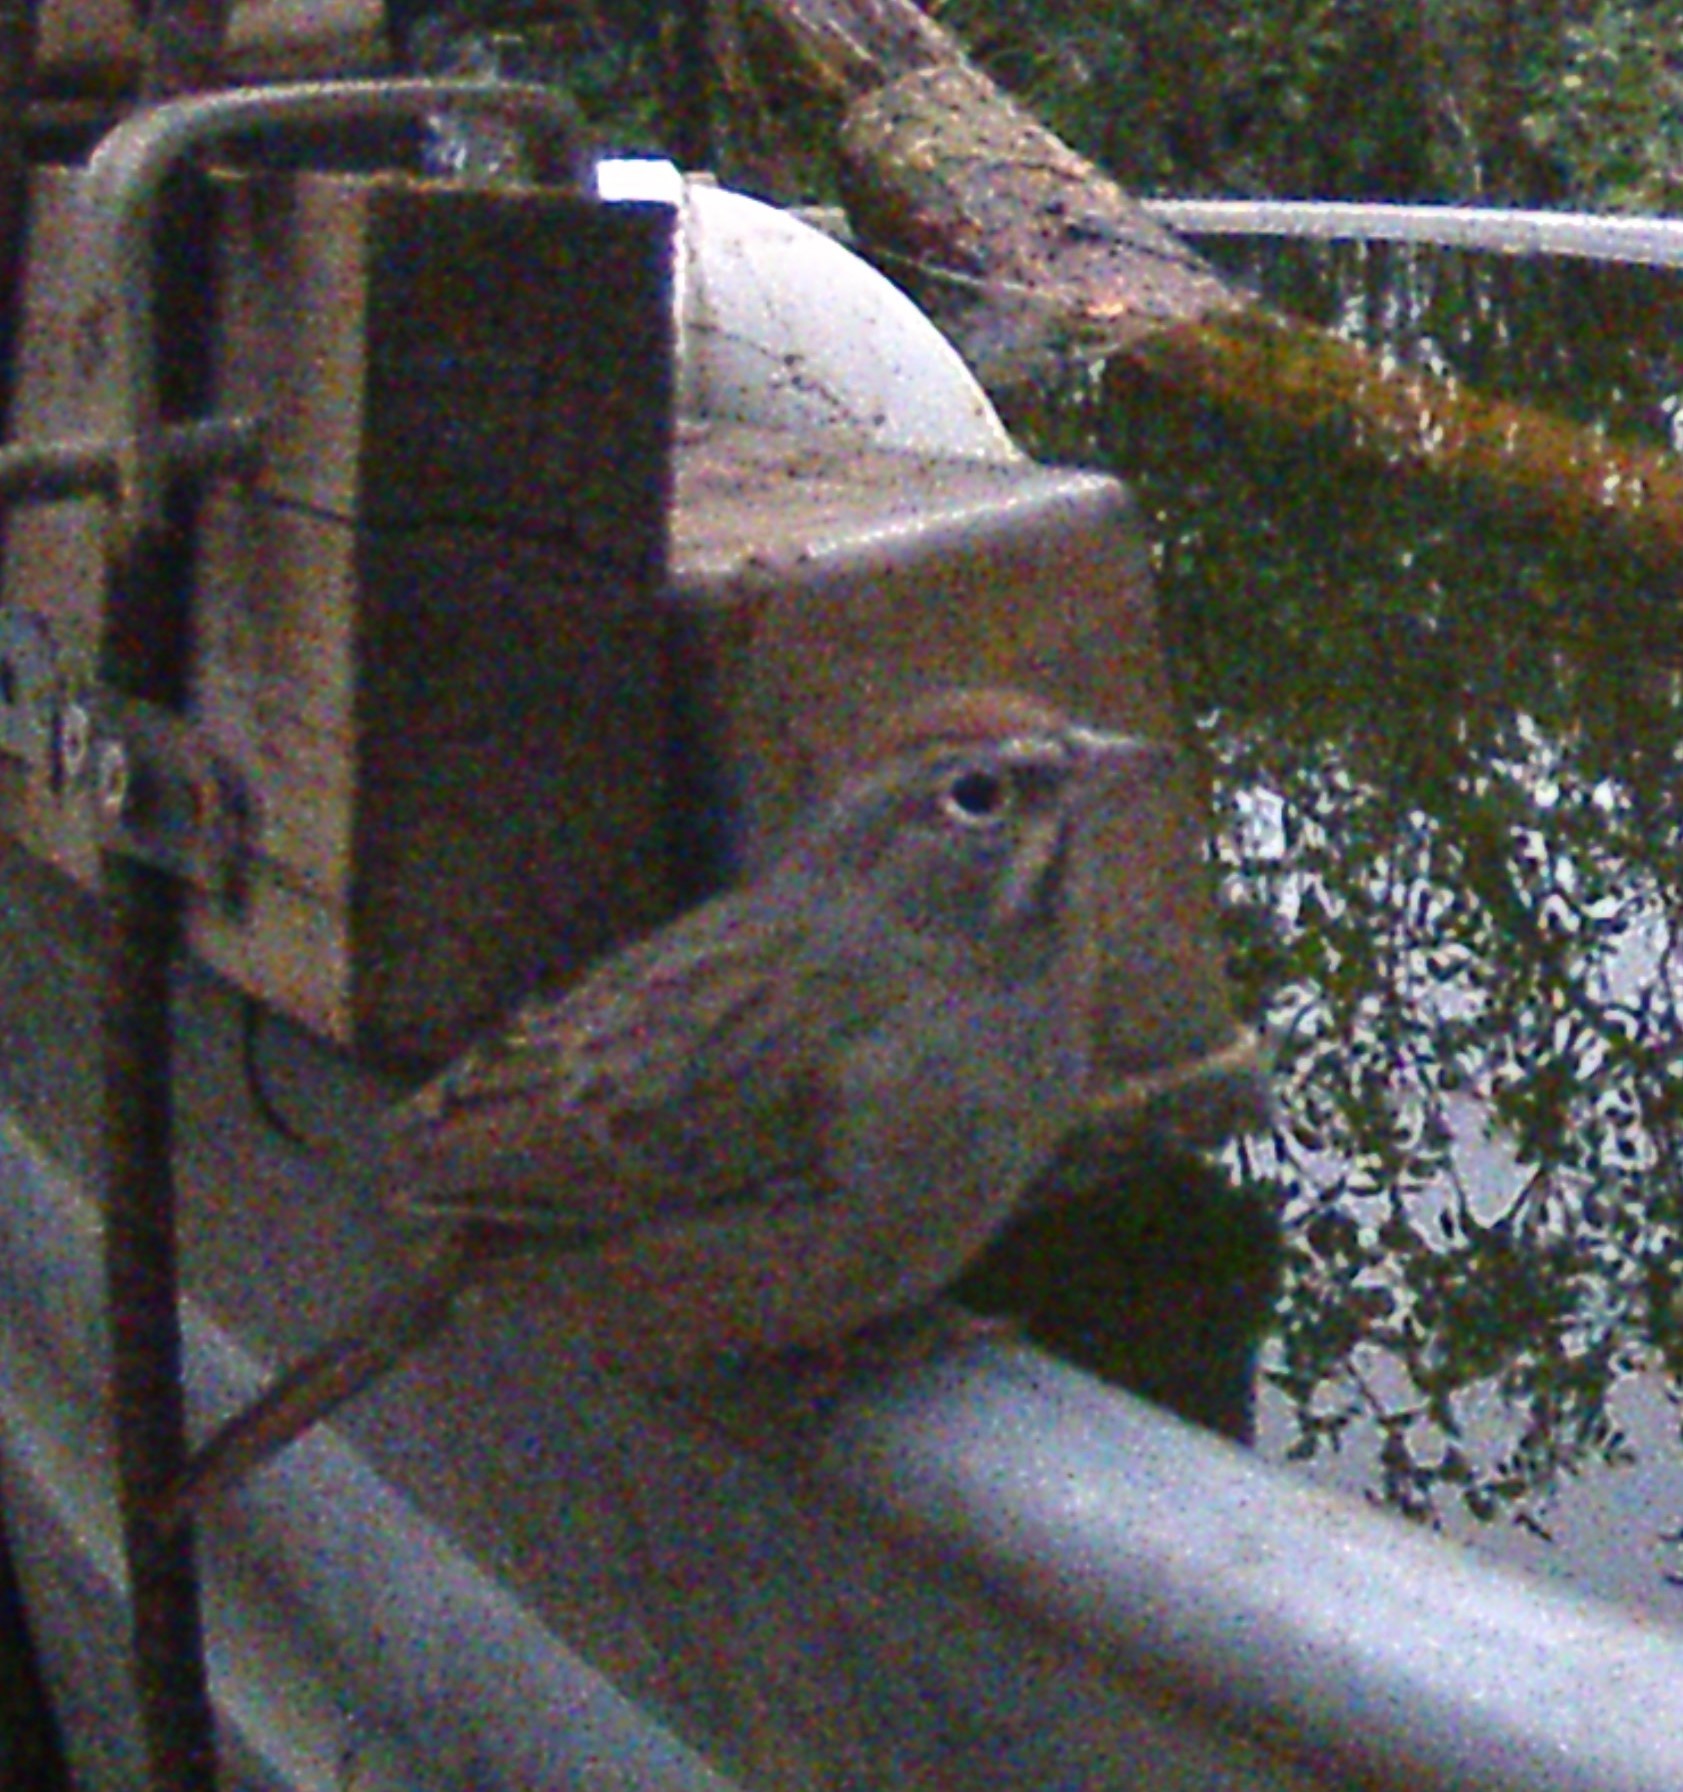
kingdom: Animalia
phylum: Chordata
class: Aves
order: Passeriformes
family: Passerellidae
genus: Aimophila
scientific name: Aimophila ruficeps
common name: Rufous-crowned sparrow
